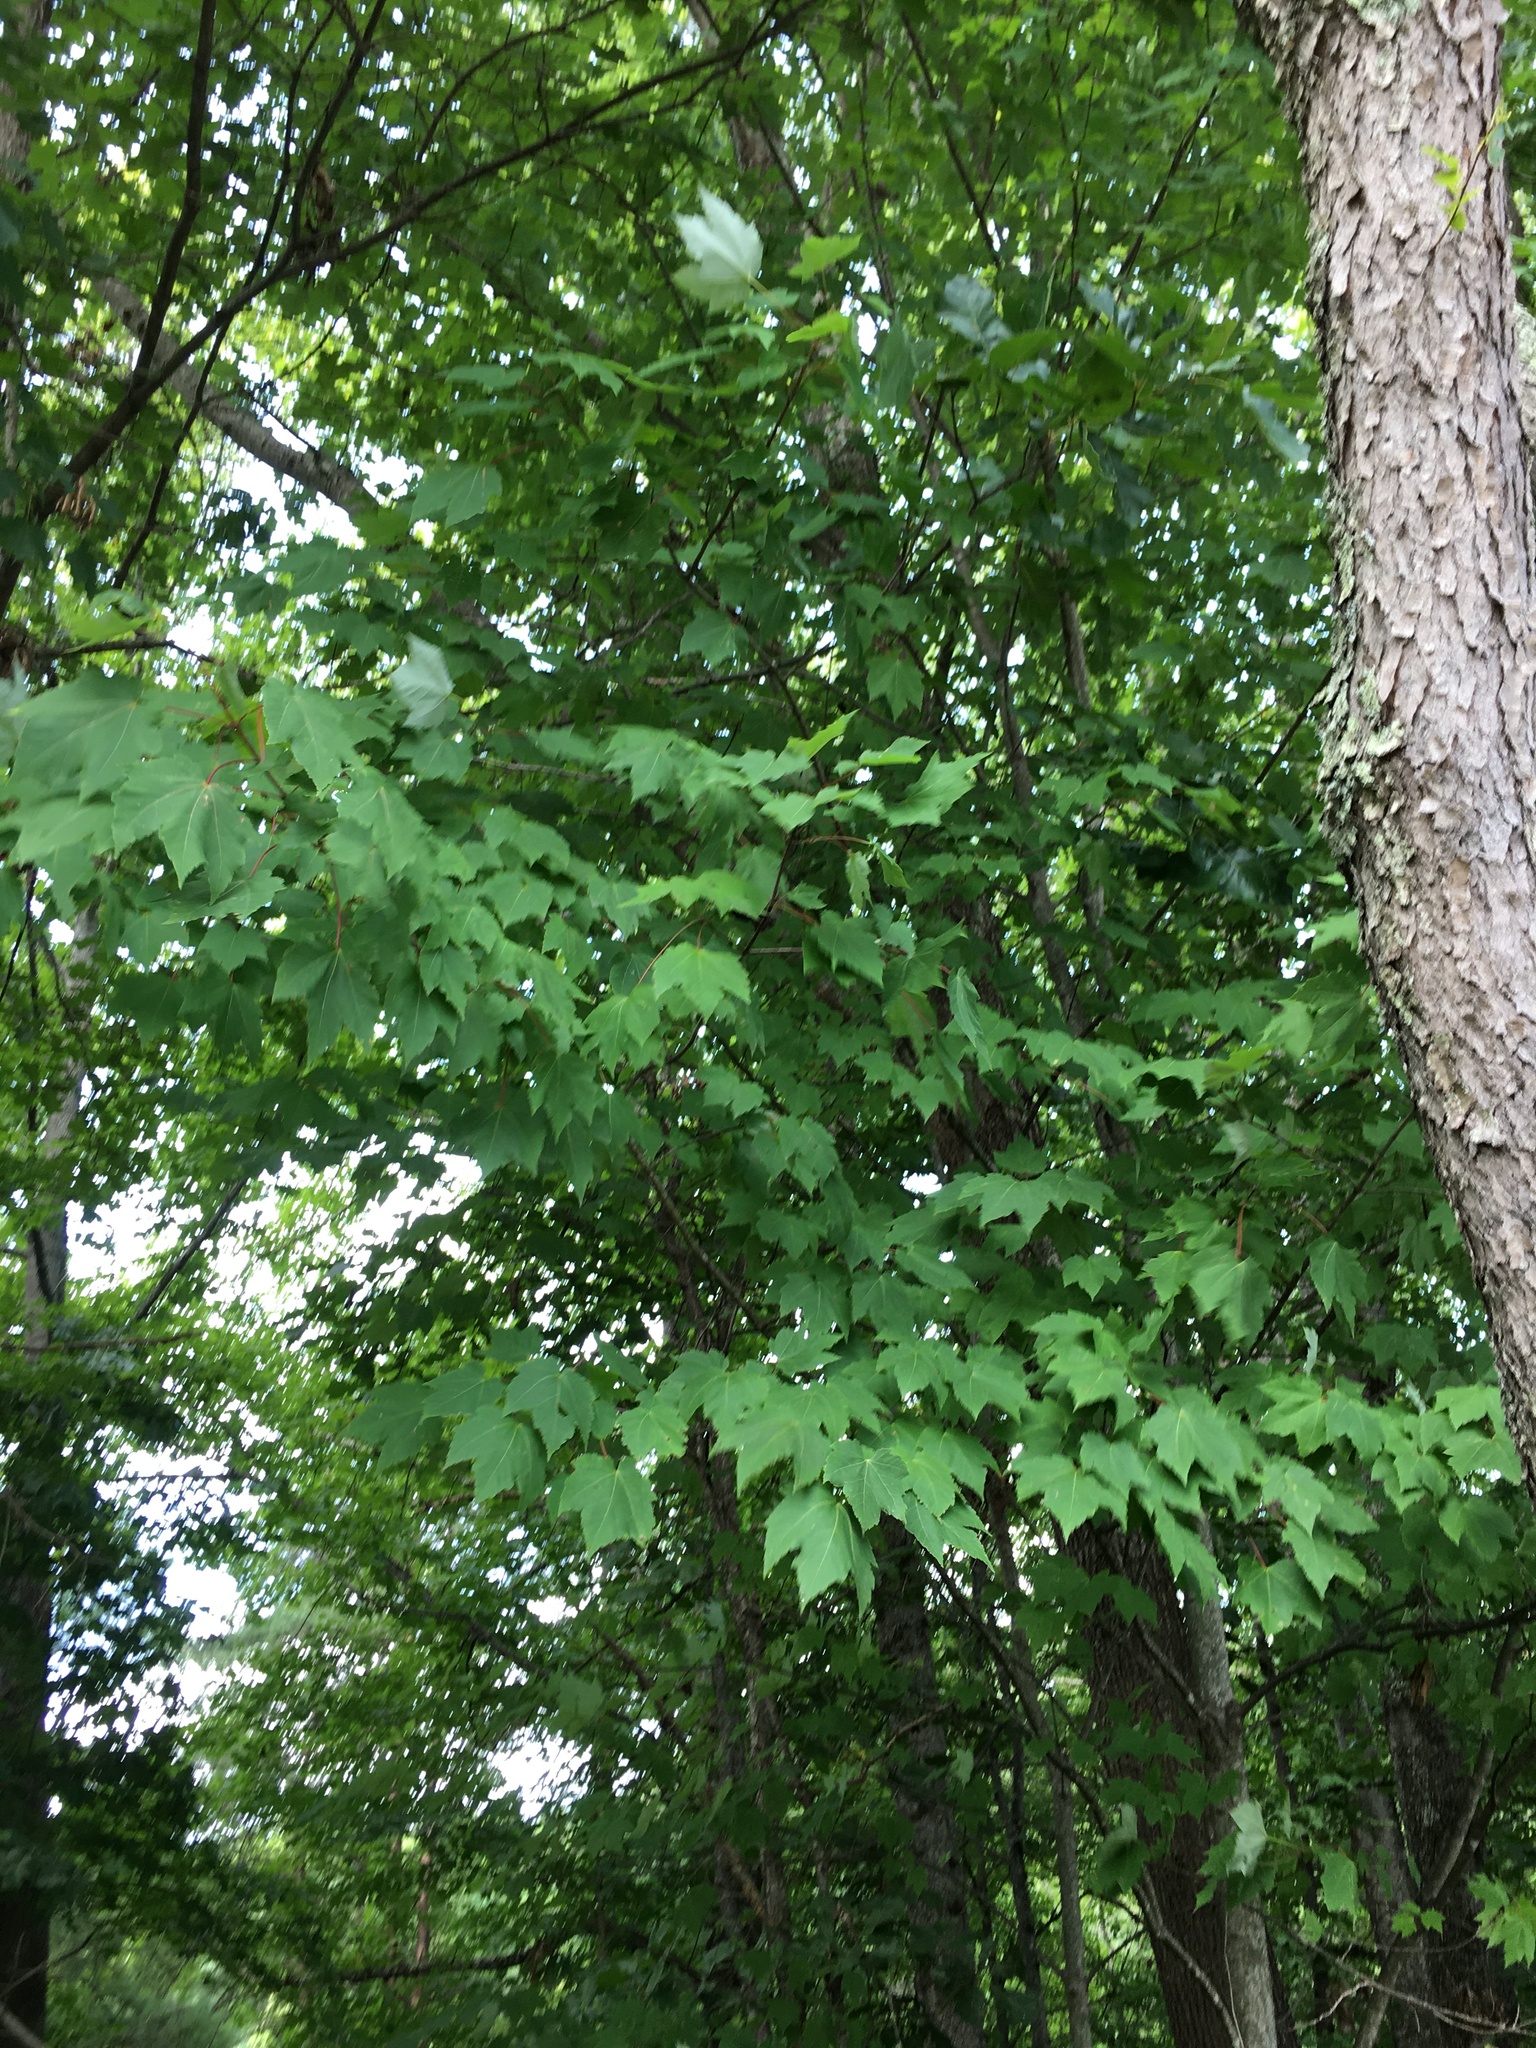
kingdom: Plantae
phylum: Tracheophyta
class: Magnoliopsida
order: Sapindales
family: Sapindaceae
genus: Acer
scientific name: Acer rubrum
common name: Red maple
